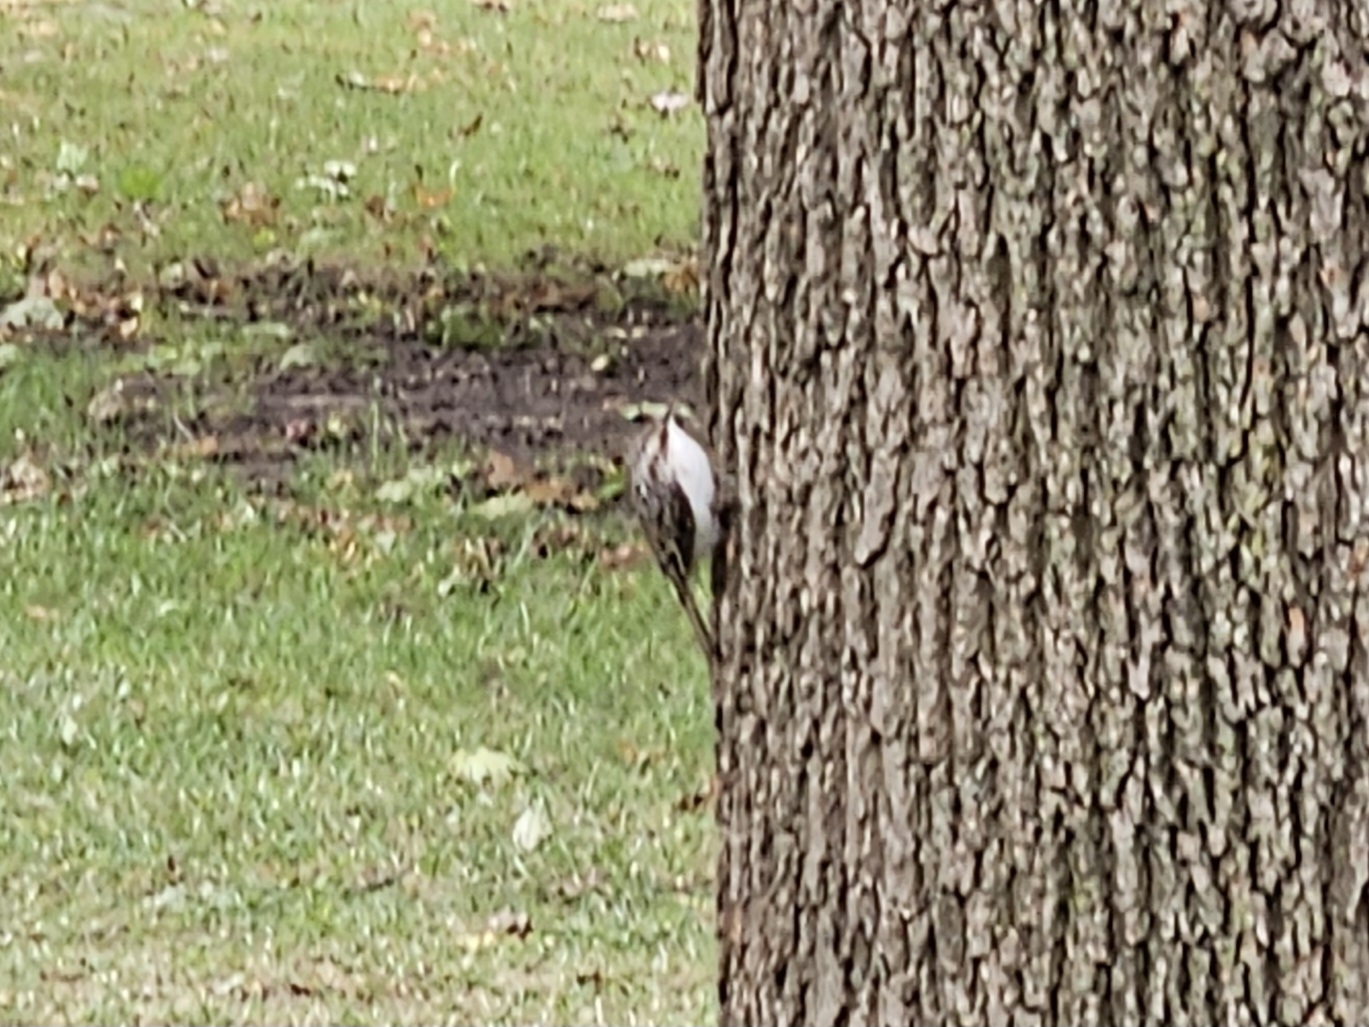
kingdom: Animalia
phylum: Chordata
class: Aves
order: Passeriformes
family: Certhiidae
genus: Certhia
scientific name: Certhia americana
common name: Brown creeper
